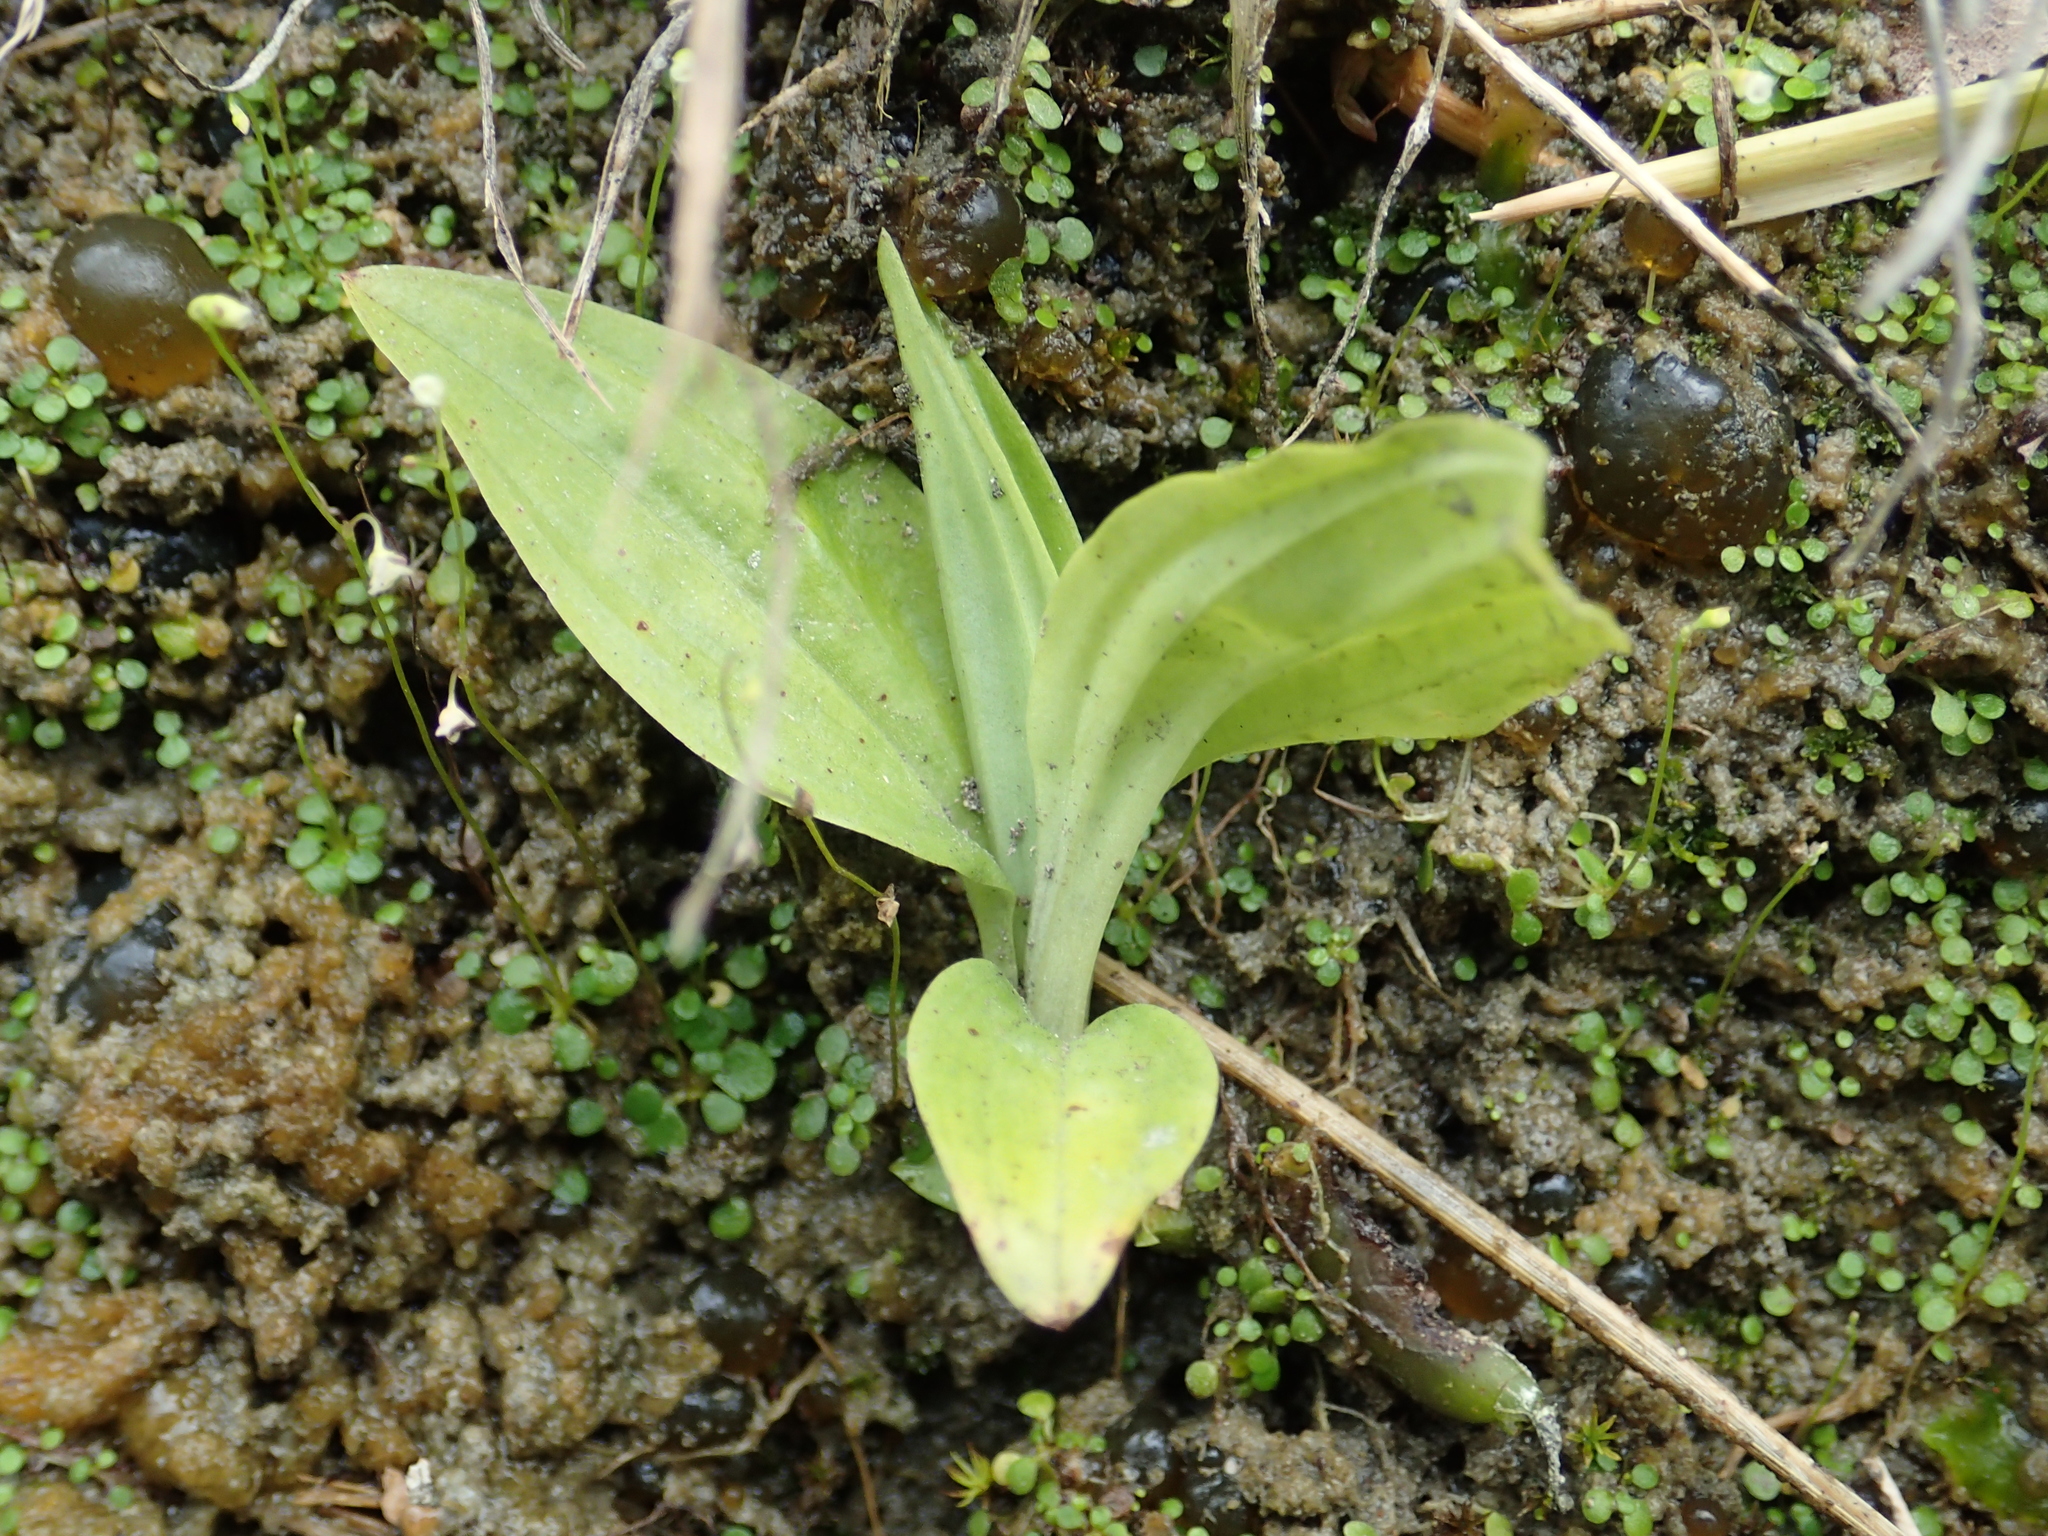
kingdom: Plantae
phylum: Tracheophyta
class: Liliopsida
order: Asparagales
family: Orchidaceae
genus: Crepidium
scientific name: Crepidium purpureum
